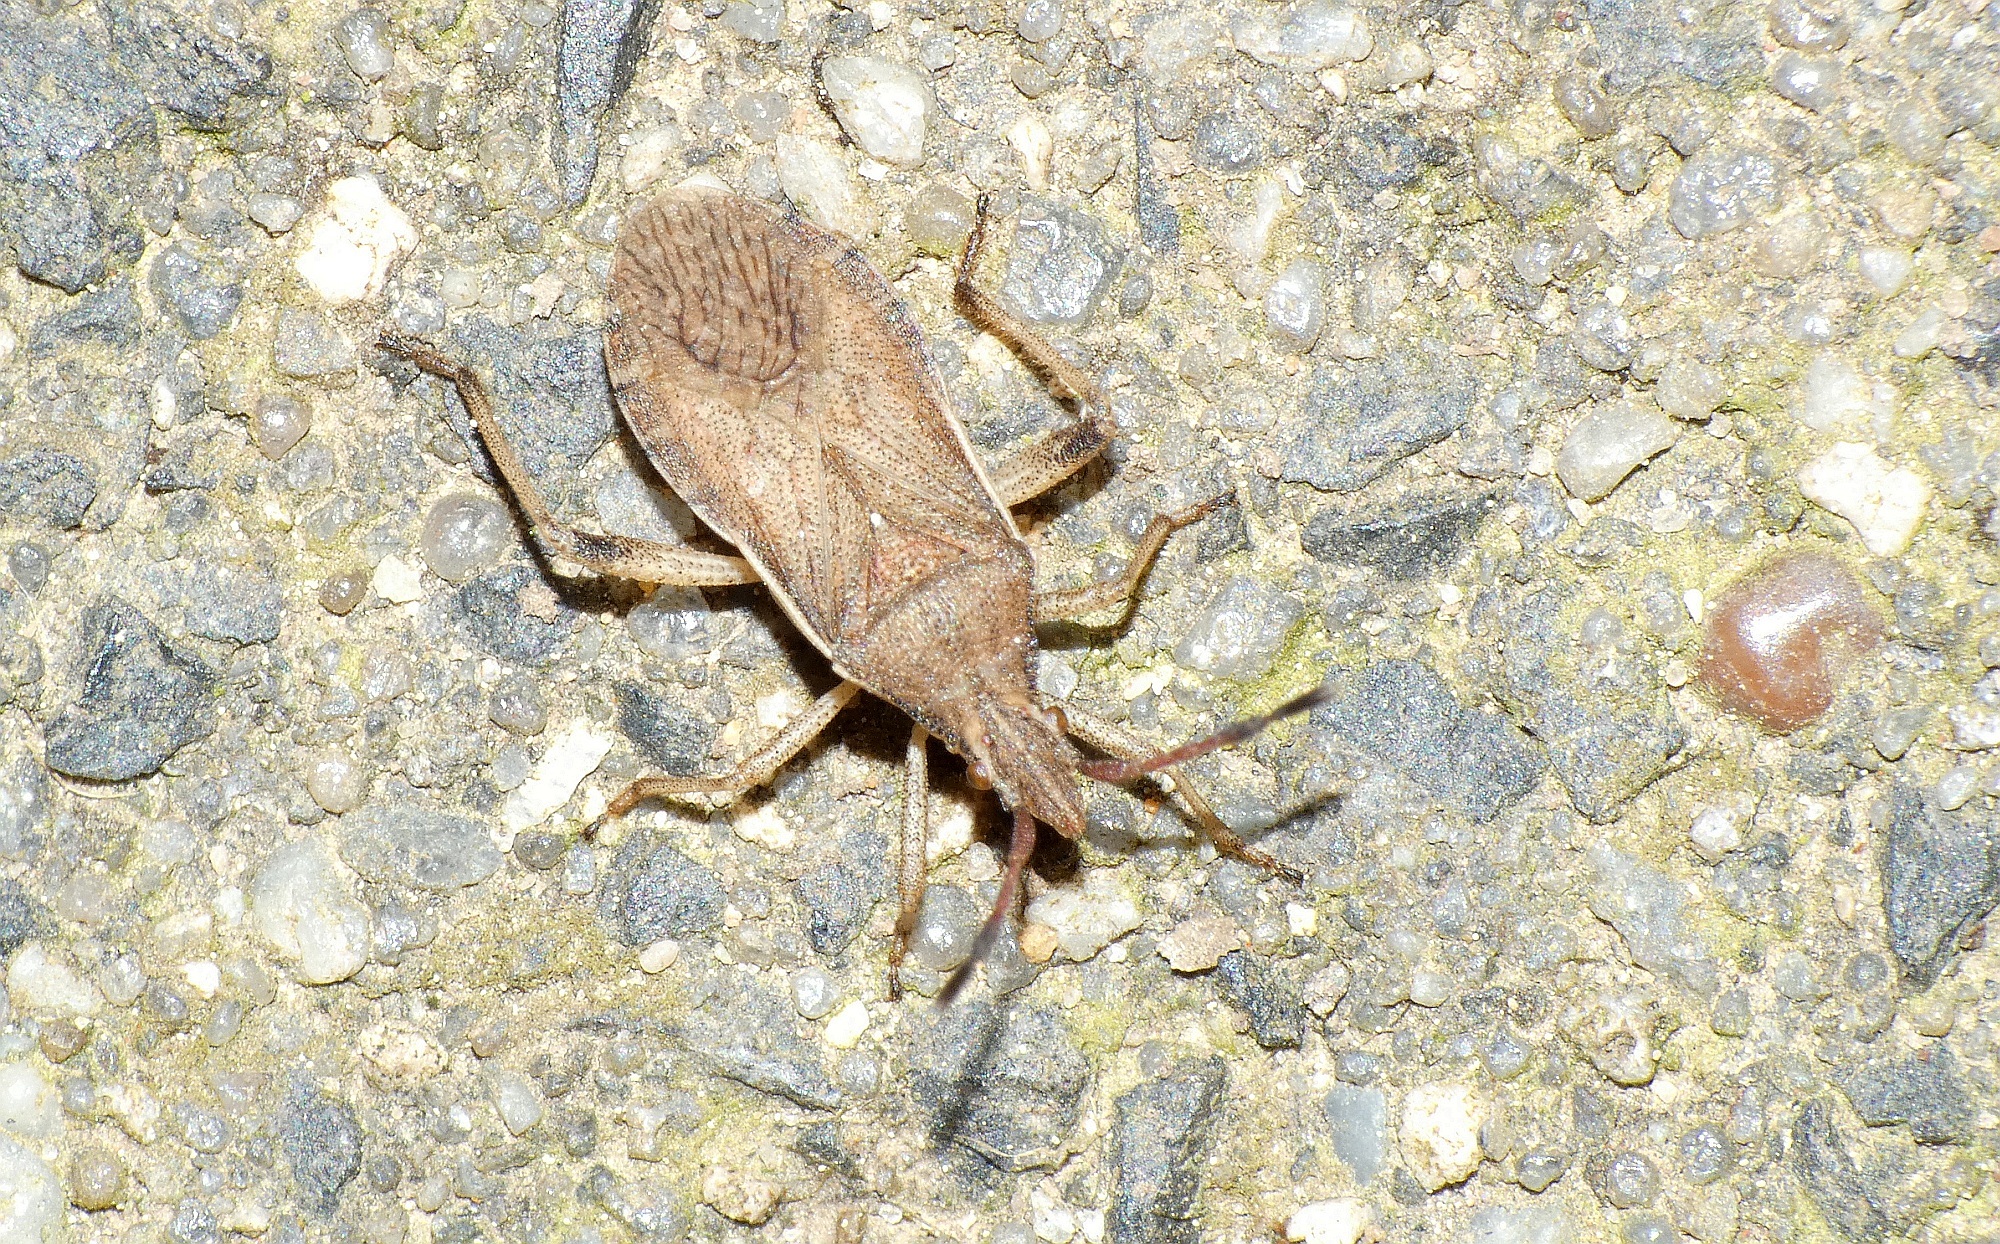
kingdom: Animalia
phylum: Arthropoda
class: Insecta
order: Hemiptera
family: Coreidae
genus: Ceraleptus
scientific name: Ceraleptus lividus
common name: Slender-horned leatherbug
